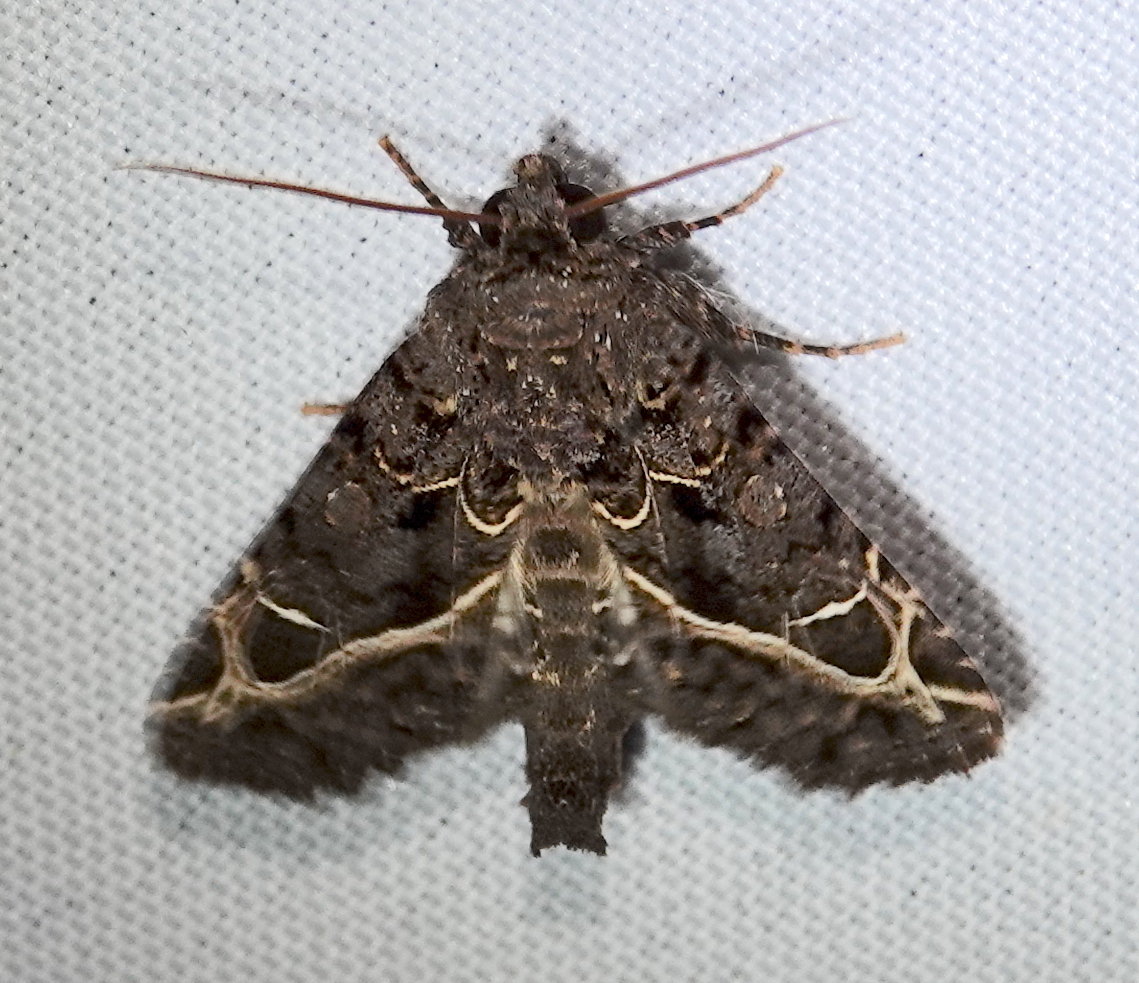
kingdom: Animalia
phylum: Arthropoda
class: Insecta
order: Lepidoptera
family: Noctuidae
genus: Heterochroma
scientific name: Heterochroma singularis
